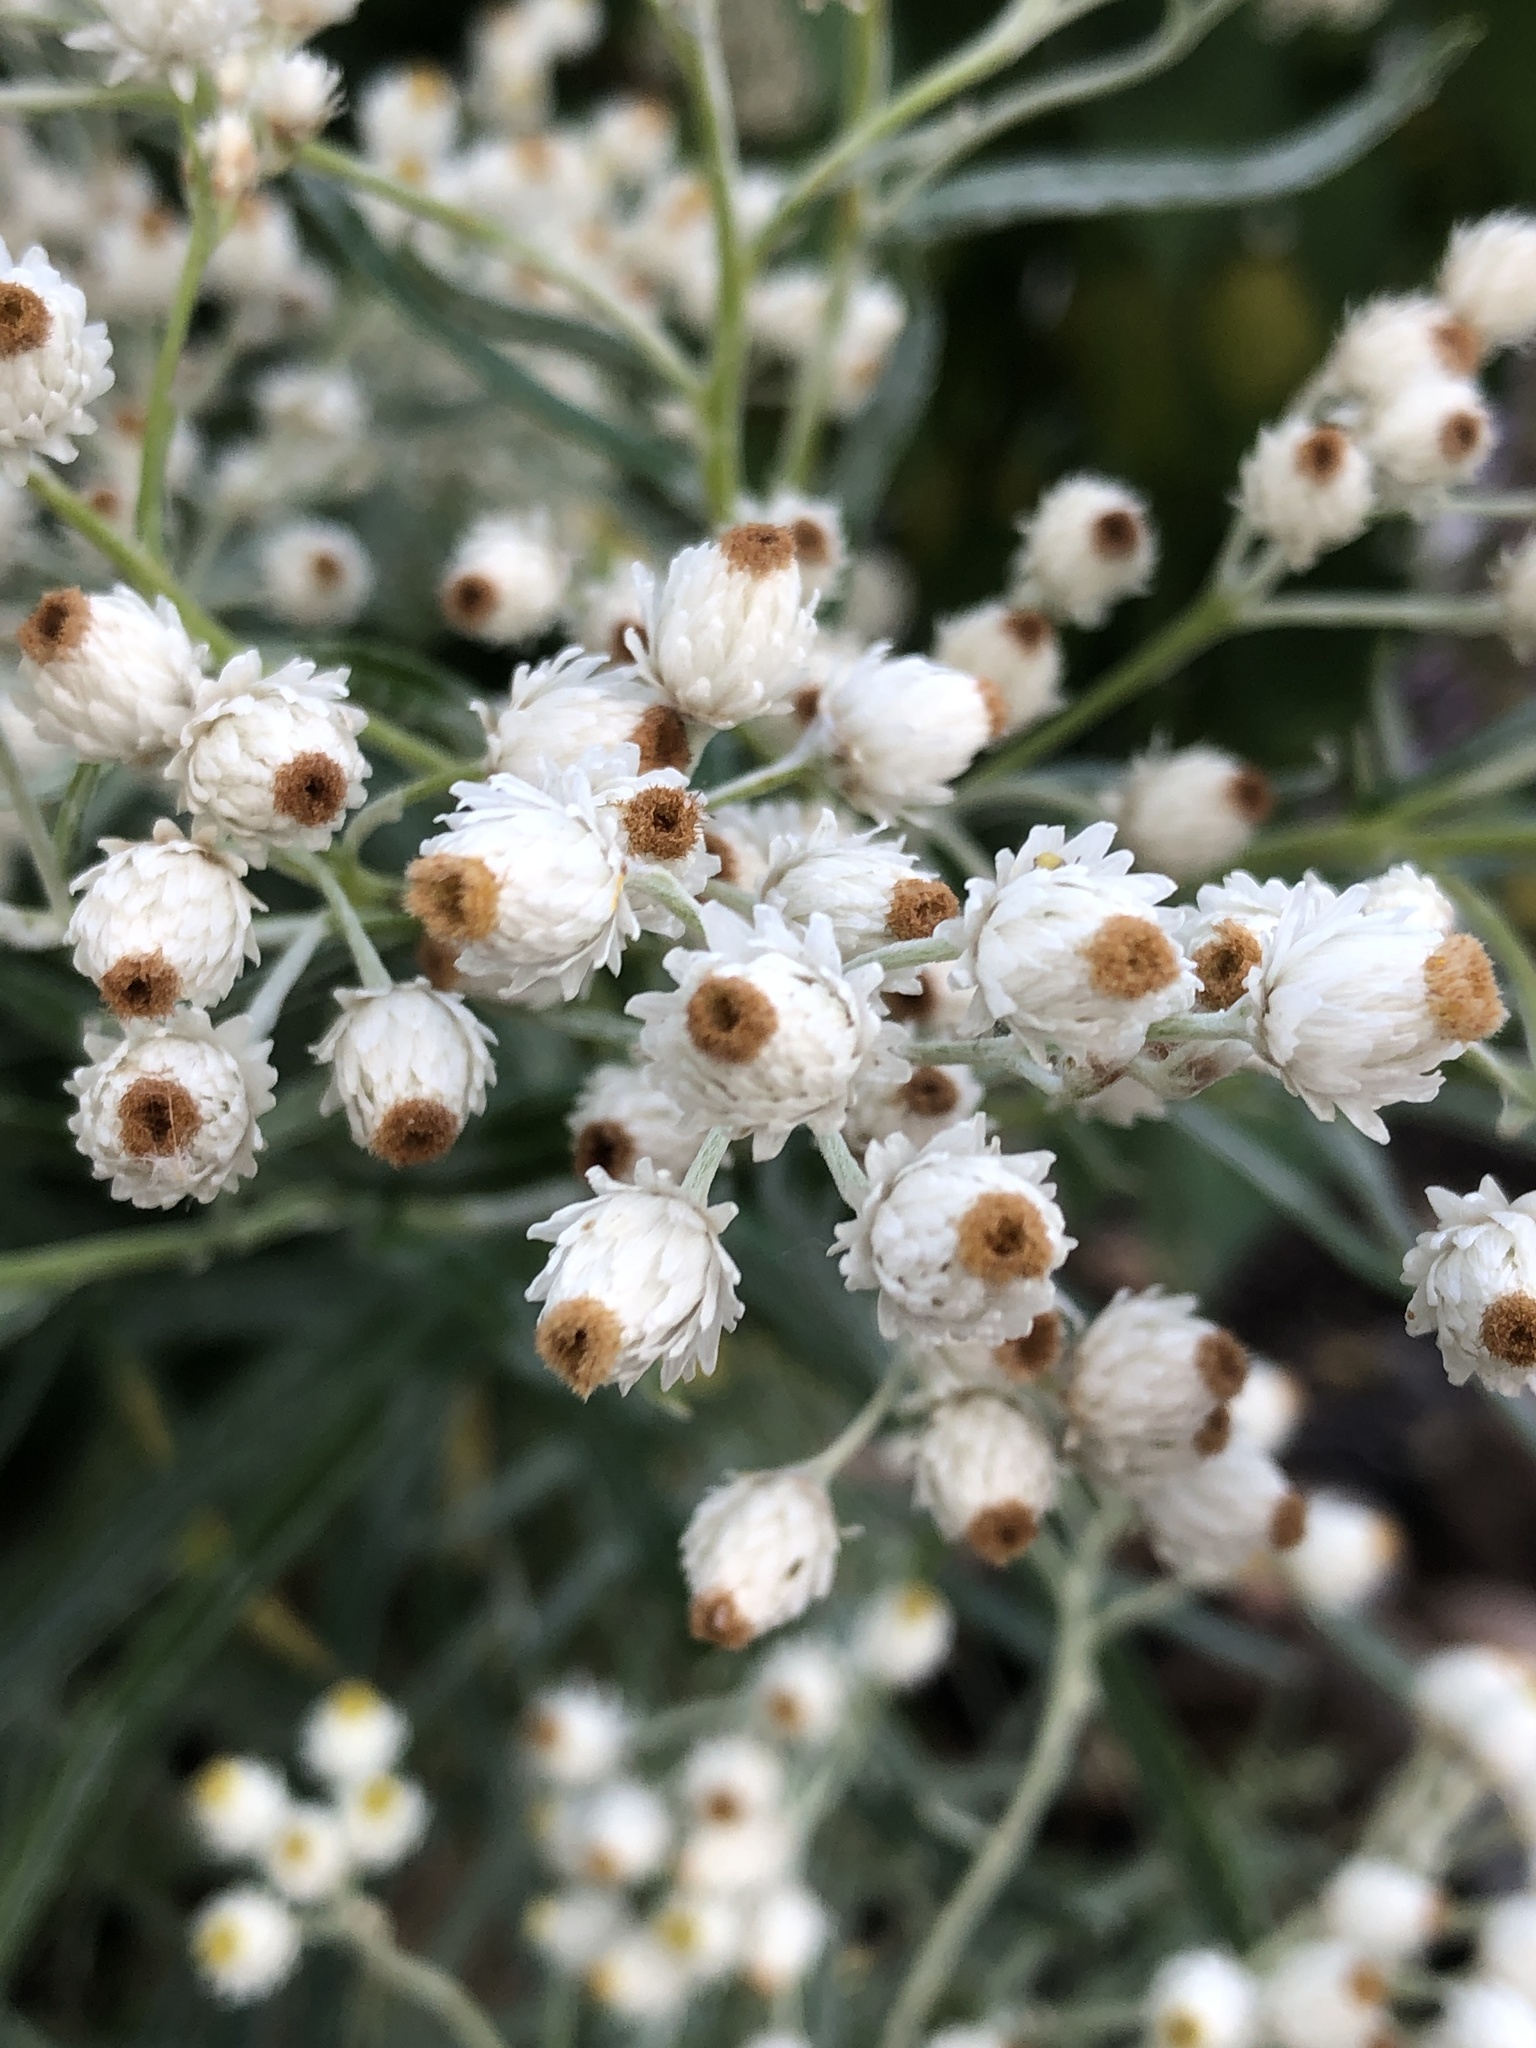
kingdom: Plantae
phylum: Tracheophyta
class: Magnoliopsida
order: Asterales
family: Asteraceae
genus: Anaphalis
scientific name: Anaphalis margaritacea
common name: Pearly everlasting
